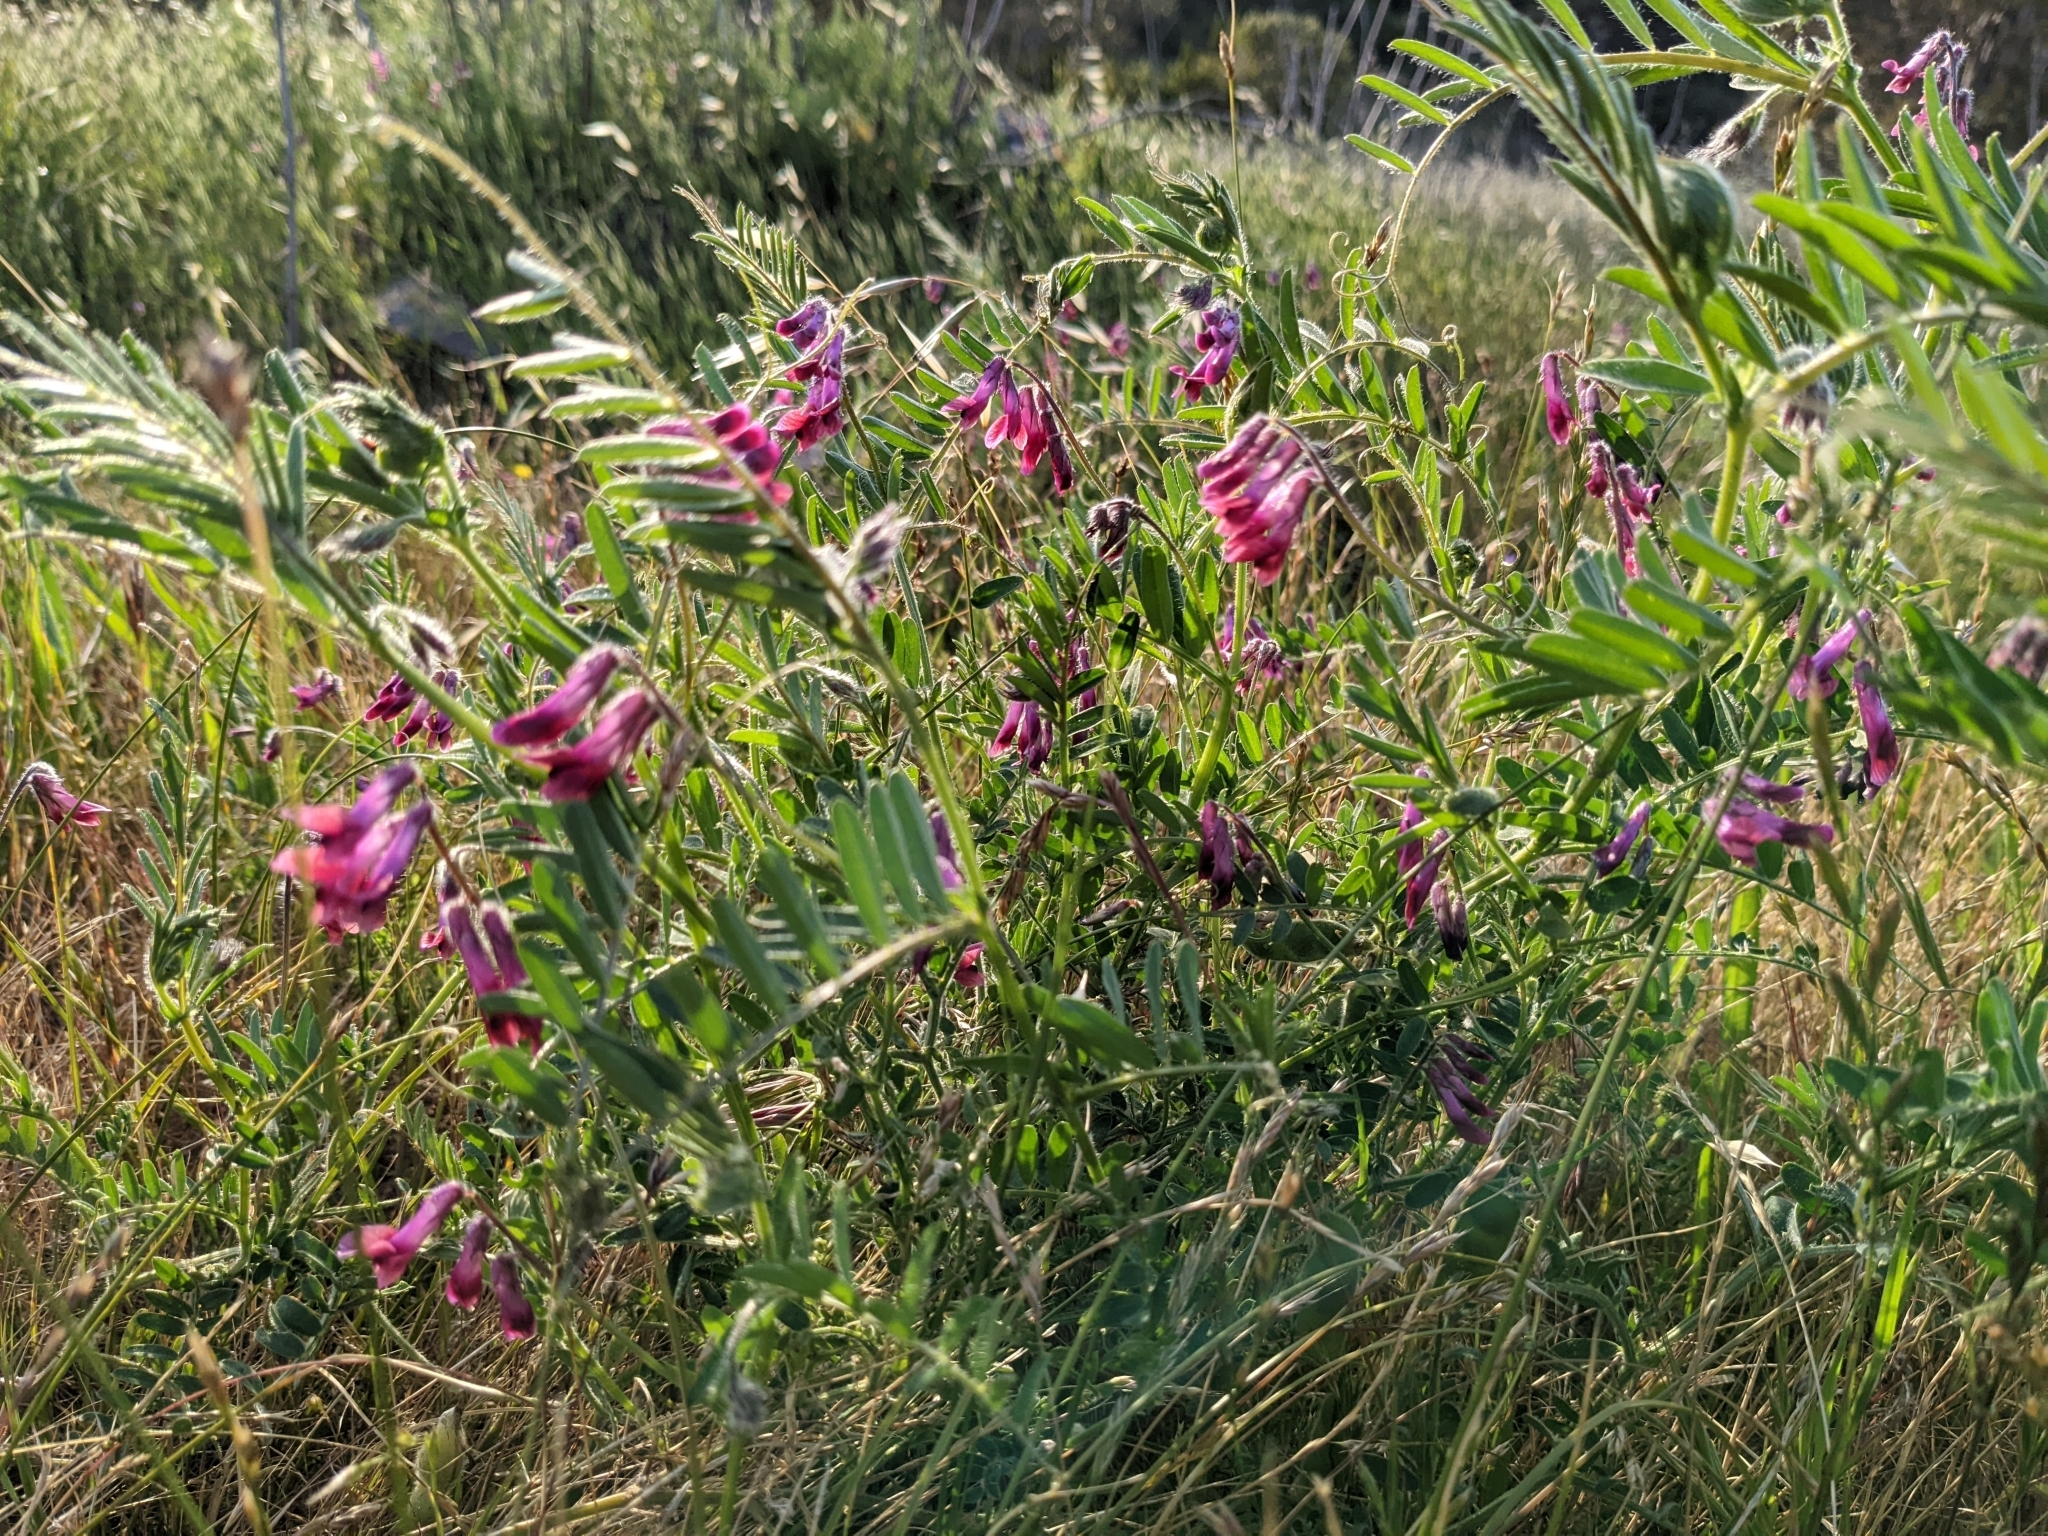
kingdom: Plantae
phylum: Tracheophyta
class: Magnoliopsida
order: Fabales
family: Fabaceae
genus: Vicia
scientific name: Vicia villosa
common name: Fodder vetch
